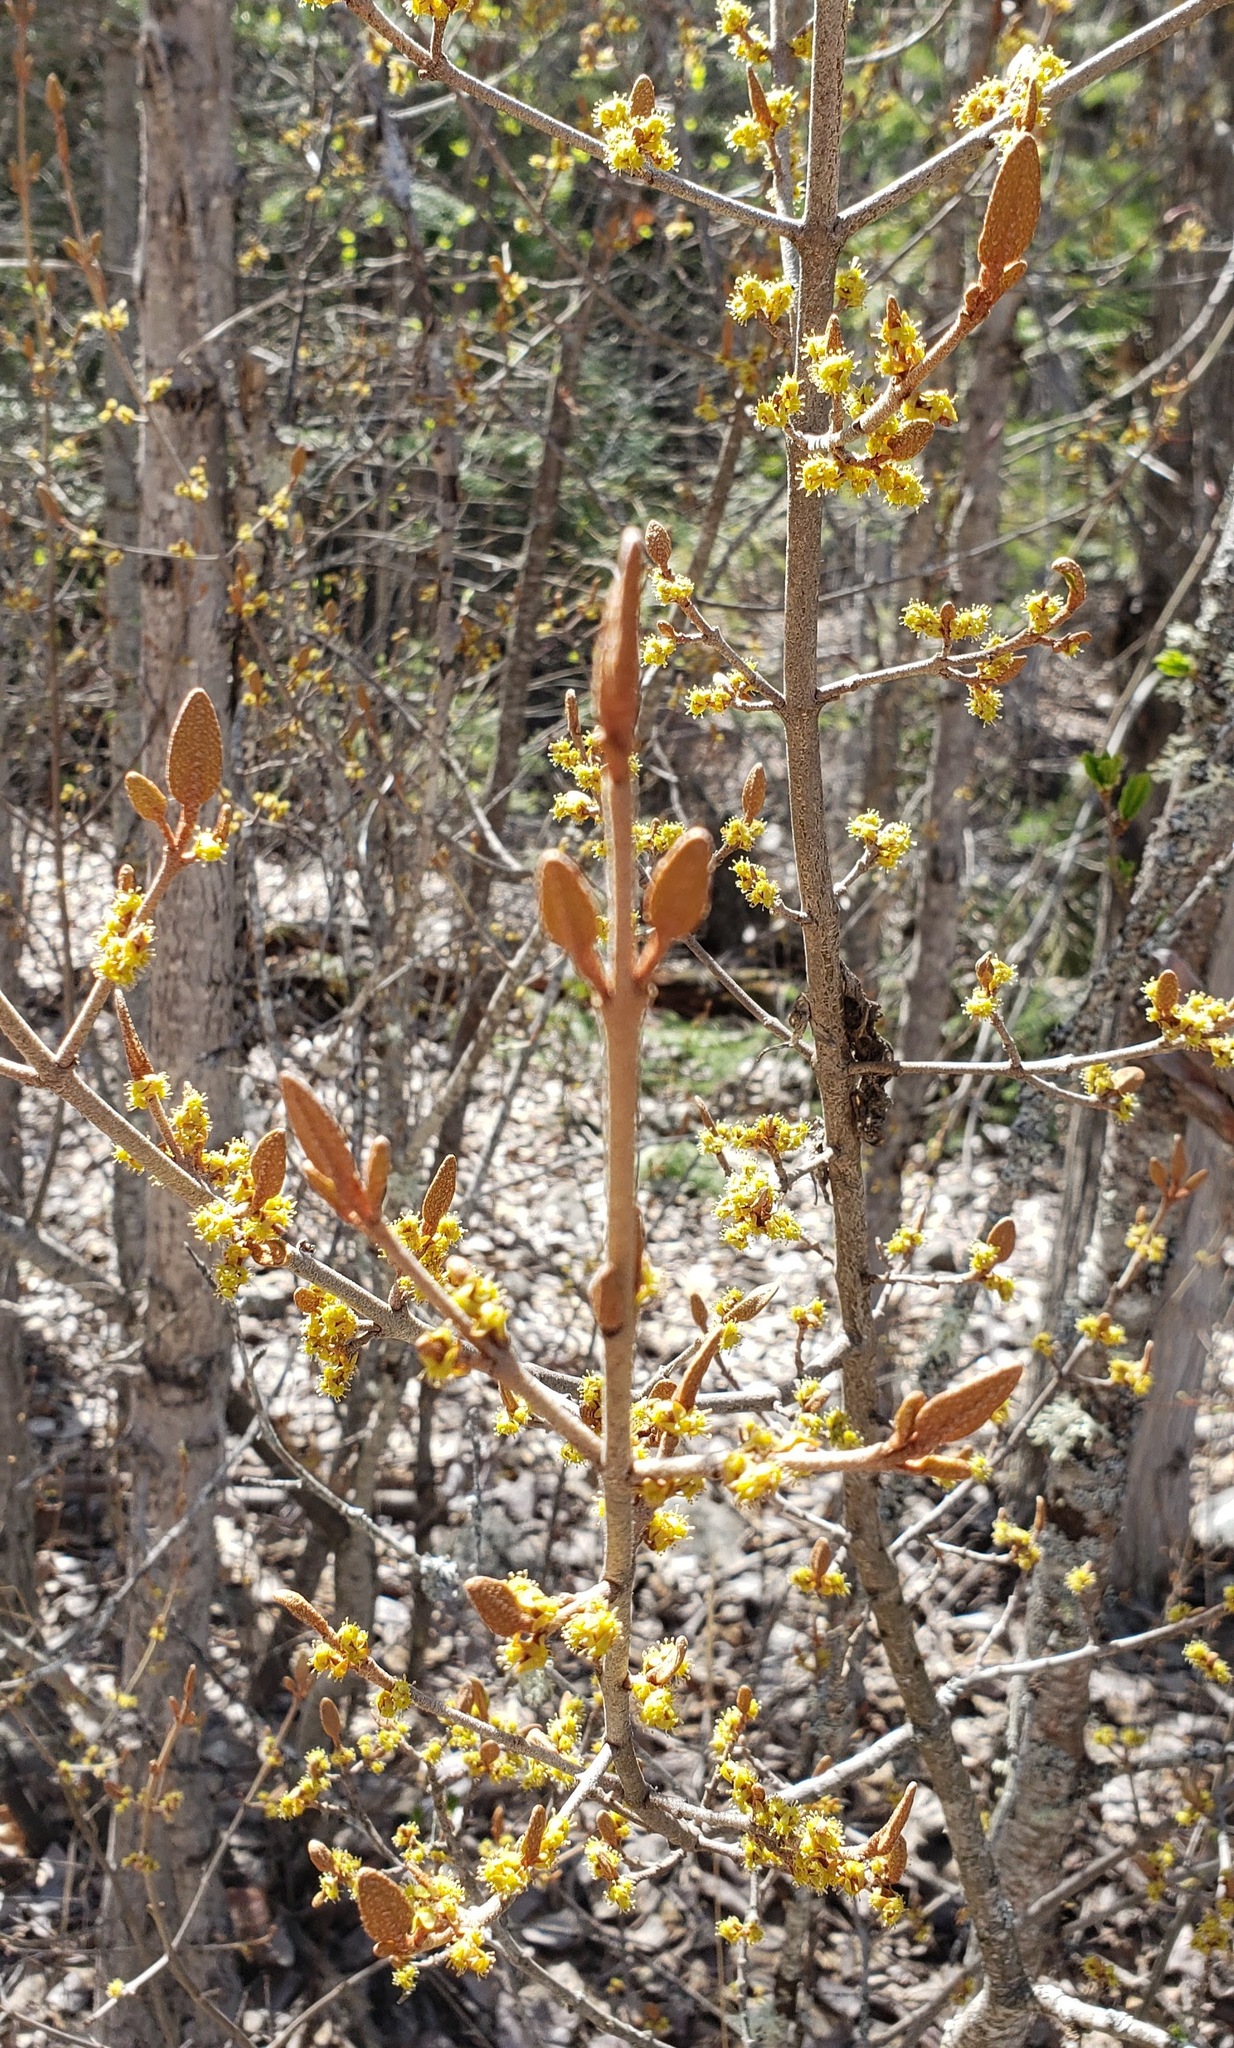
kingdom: Plantae
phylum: Tracheophyta
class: Magnoliopsida
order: Rosales
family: Elaeagnaceae
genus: Shepherdia
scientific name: Shepherdia canadensis
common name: Soapberry
